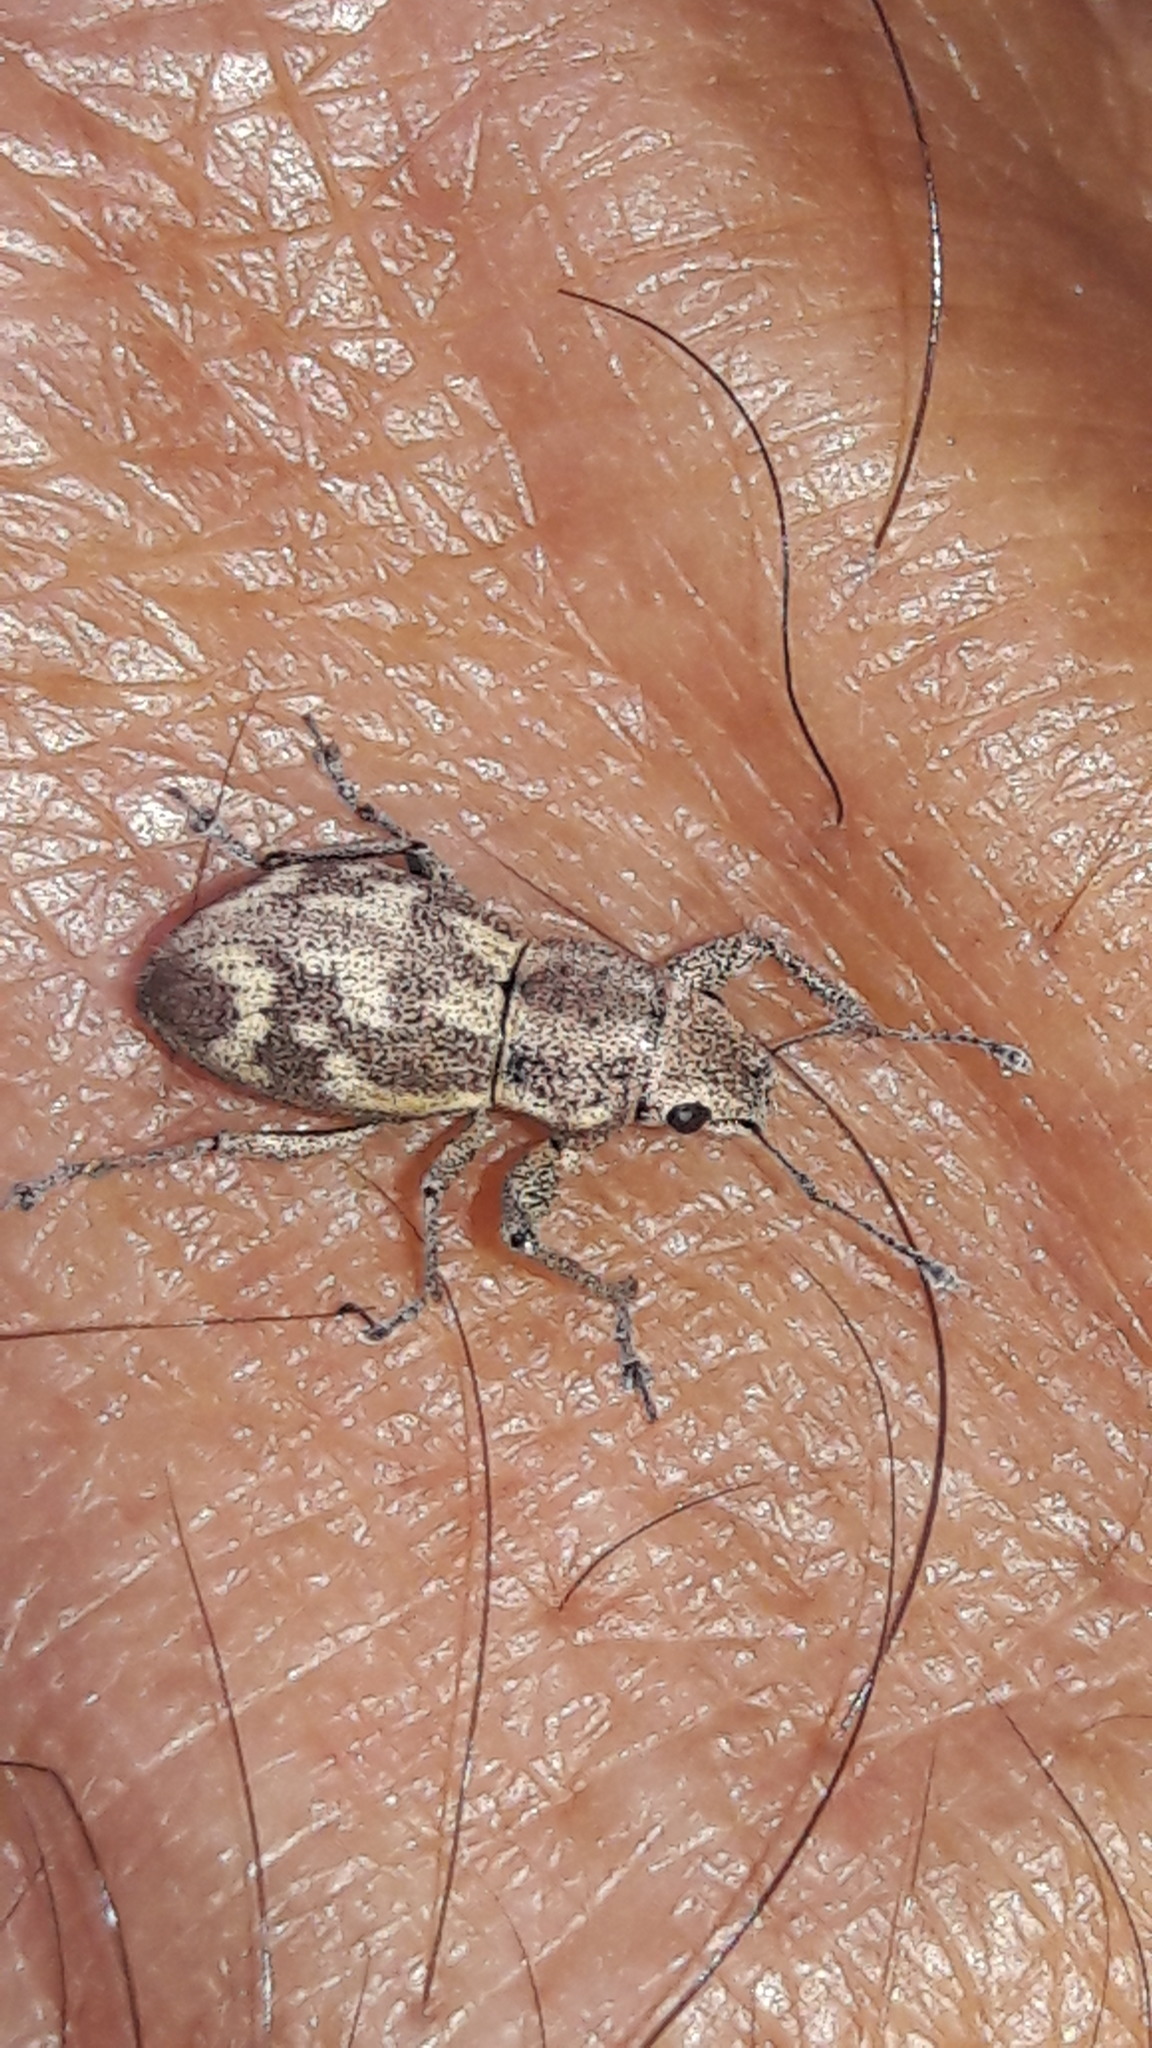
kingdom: Animalia
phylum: Arthropoda
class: Insecta
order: Coleoptera
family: Curculionidae
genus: Parapantomorus
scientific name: Parapantomorus fluctuosus
